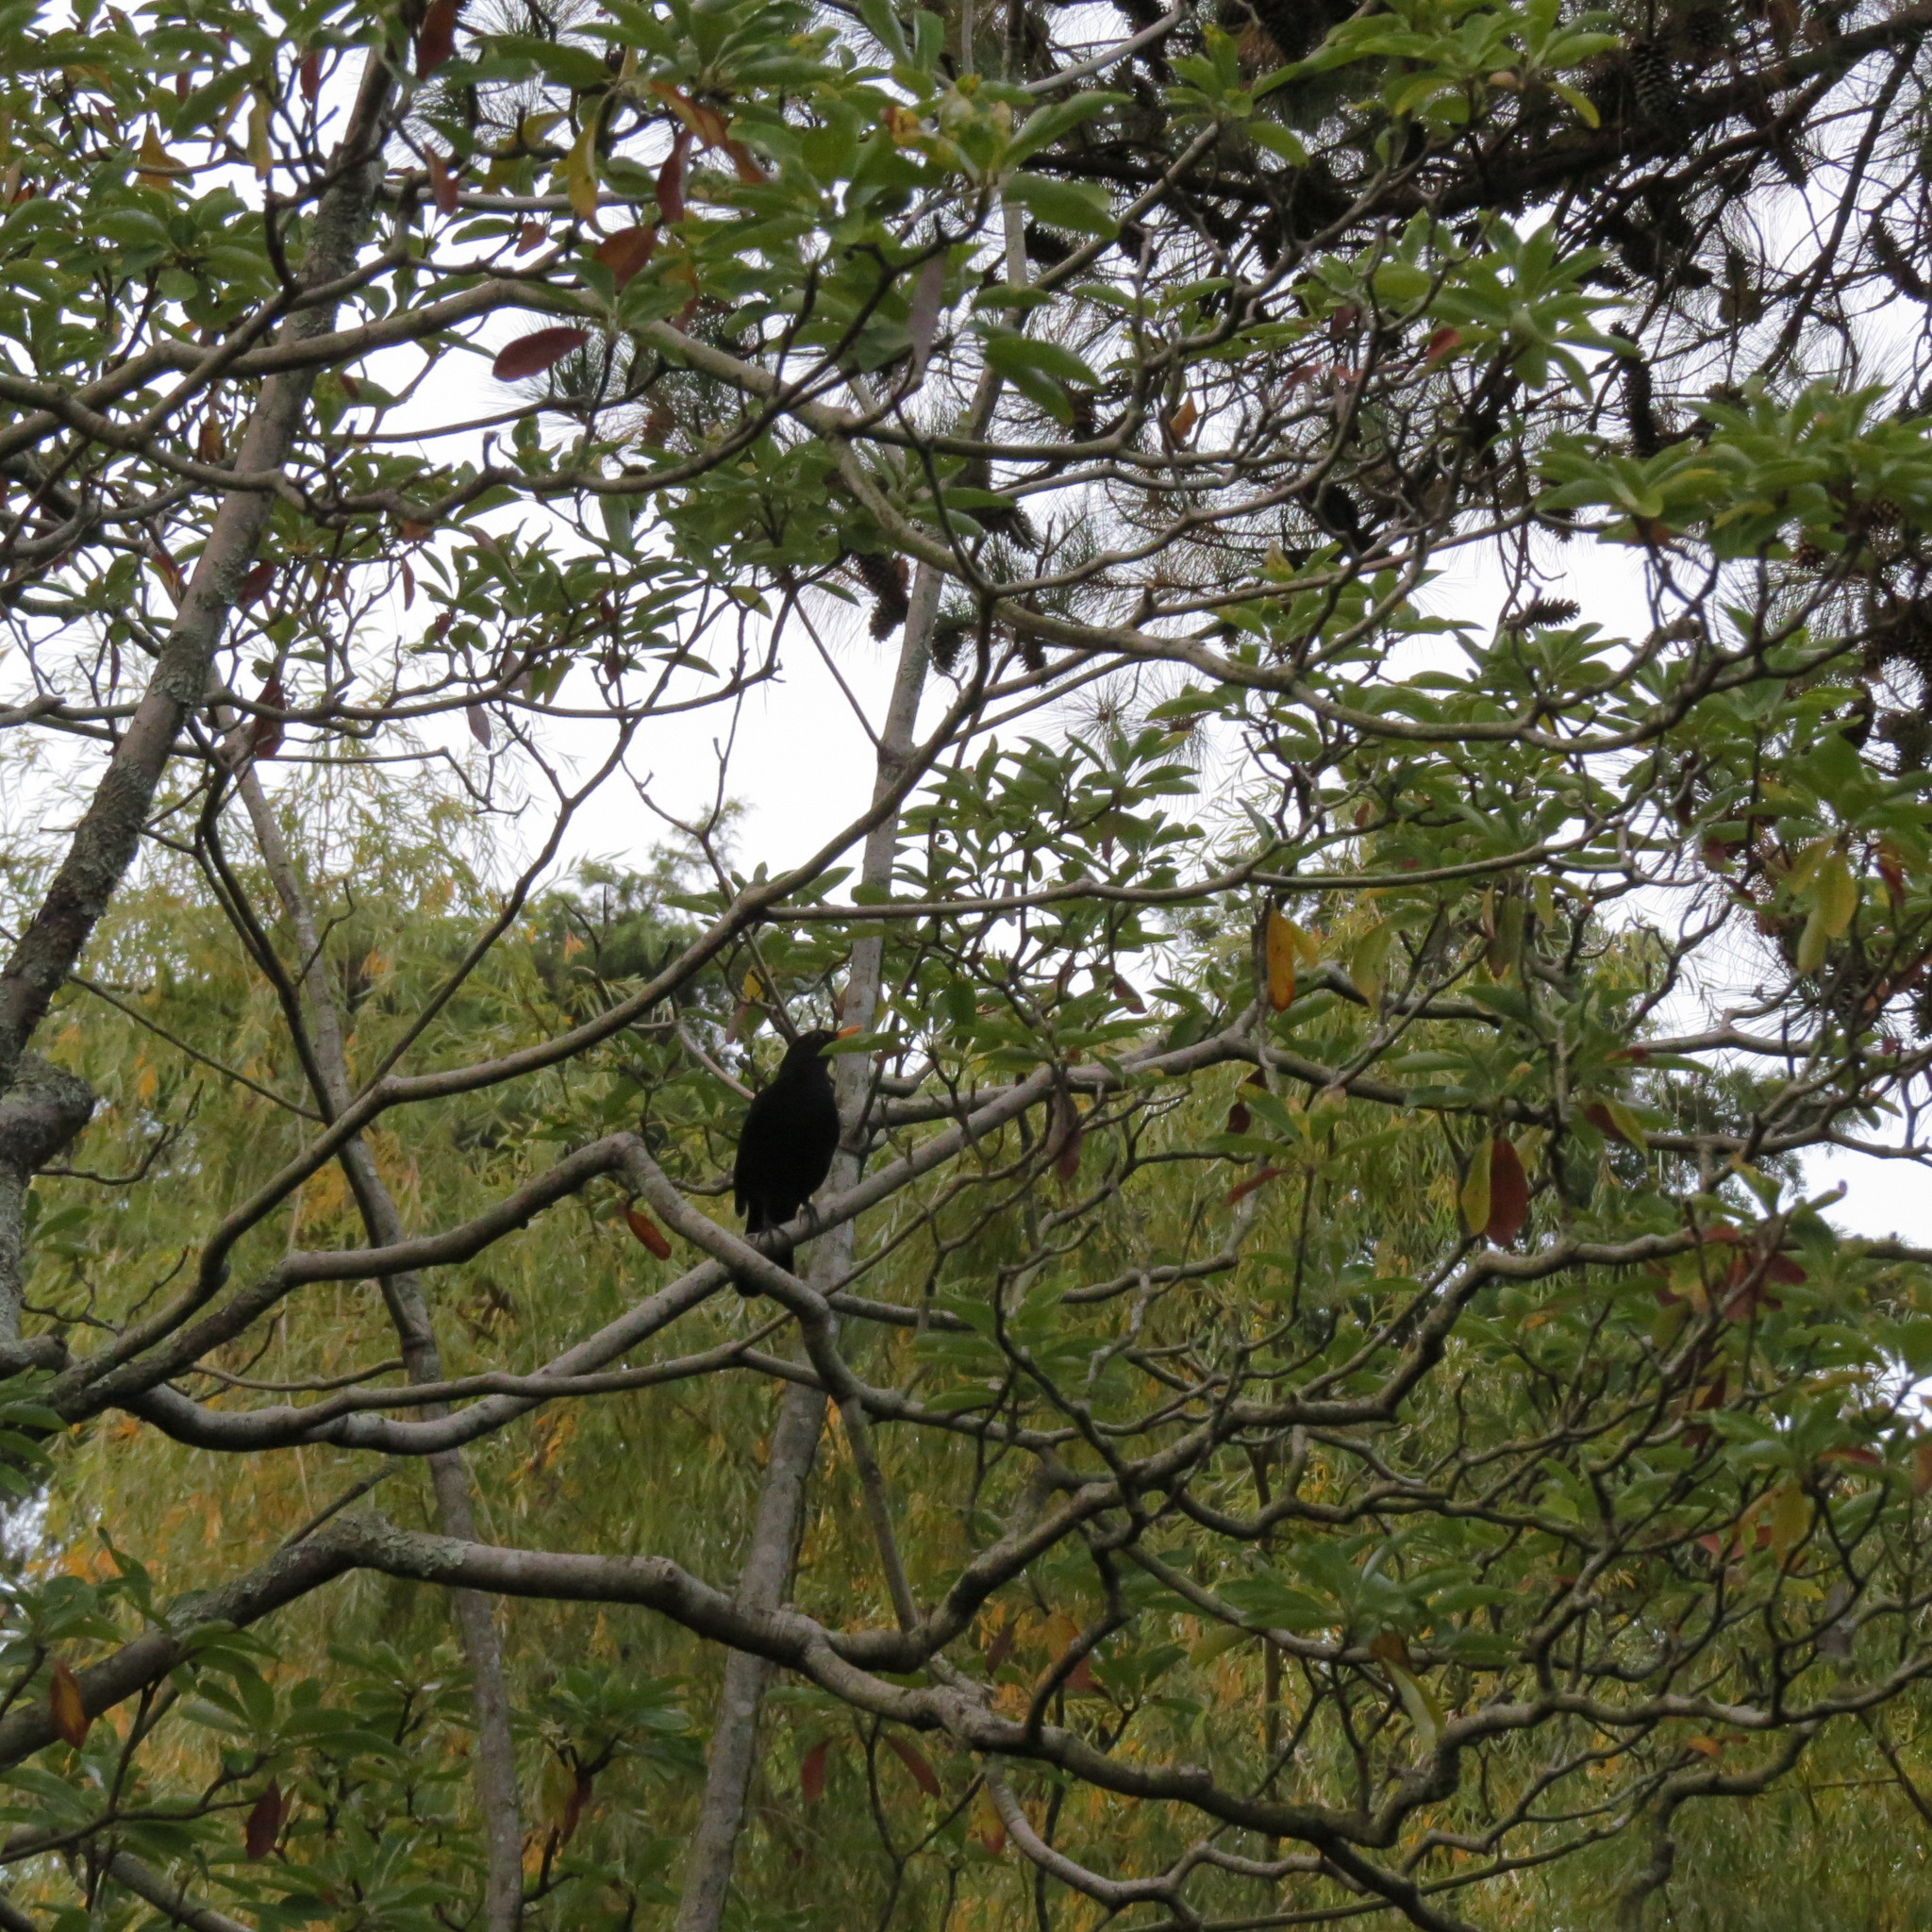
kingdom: Animalia
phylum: Chordata
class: Aves
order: Passeriformes
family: Turdidae
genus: Turdus
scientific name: Turdus merula
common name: Common blackbird
